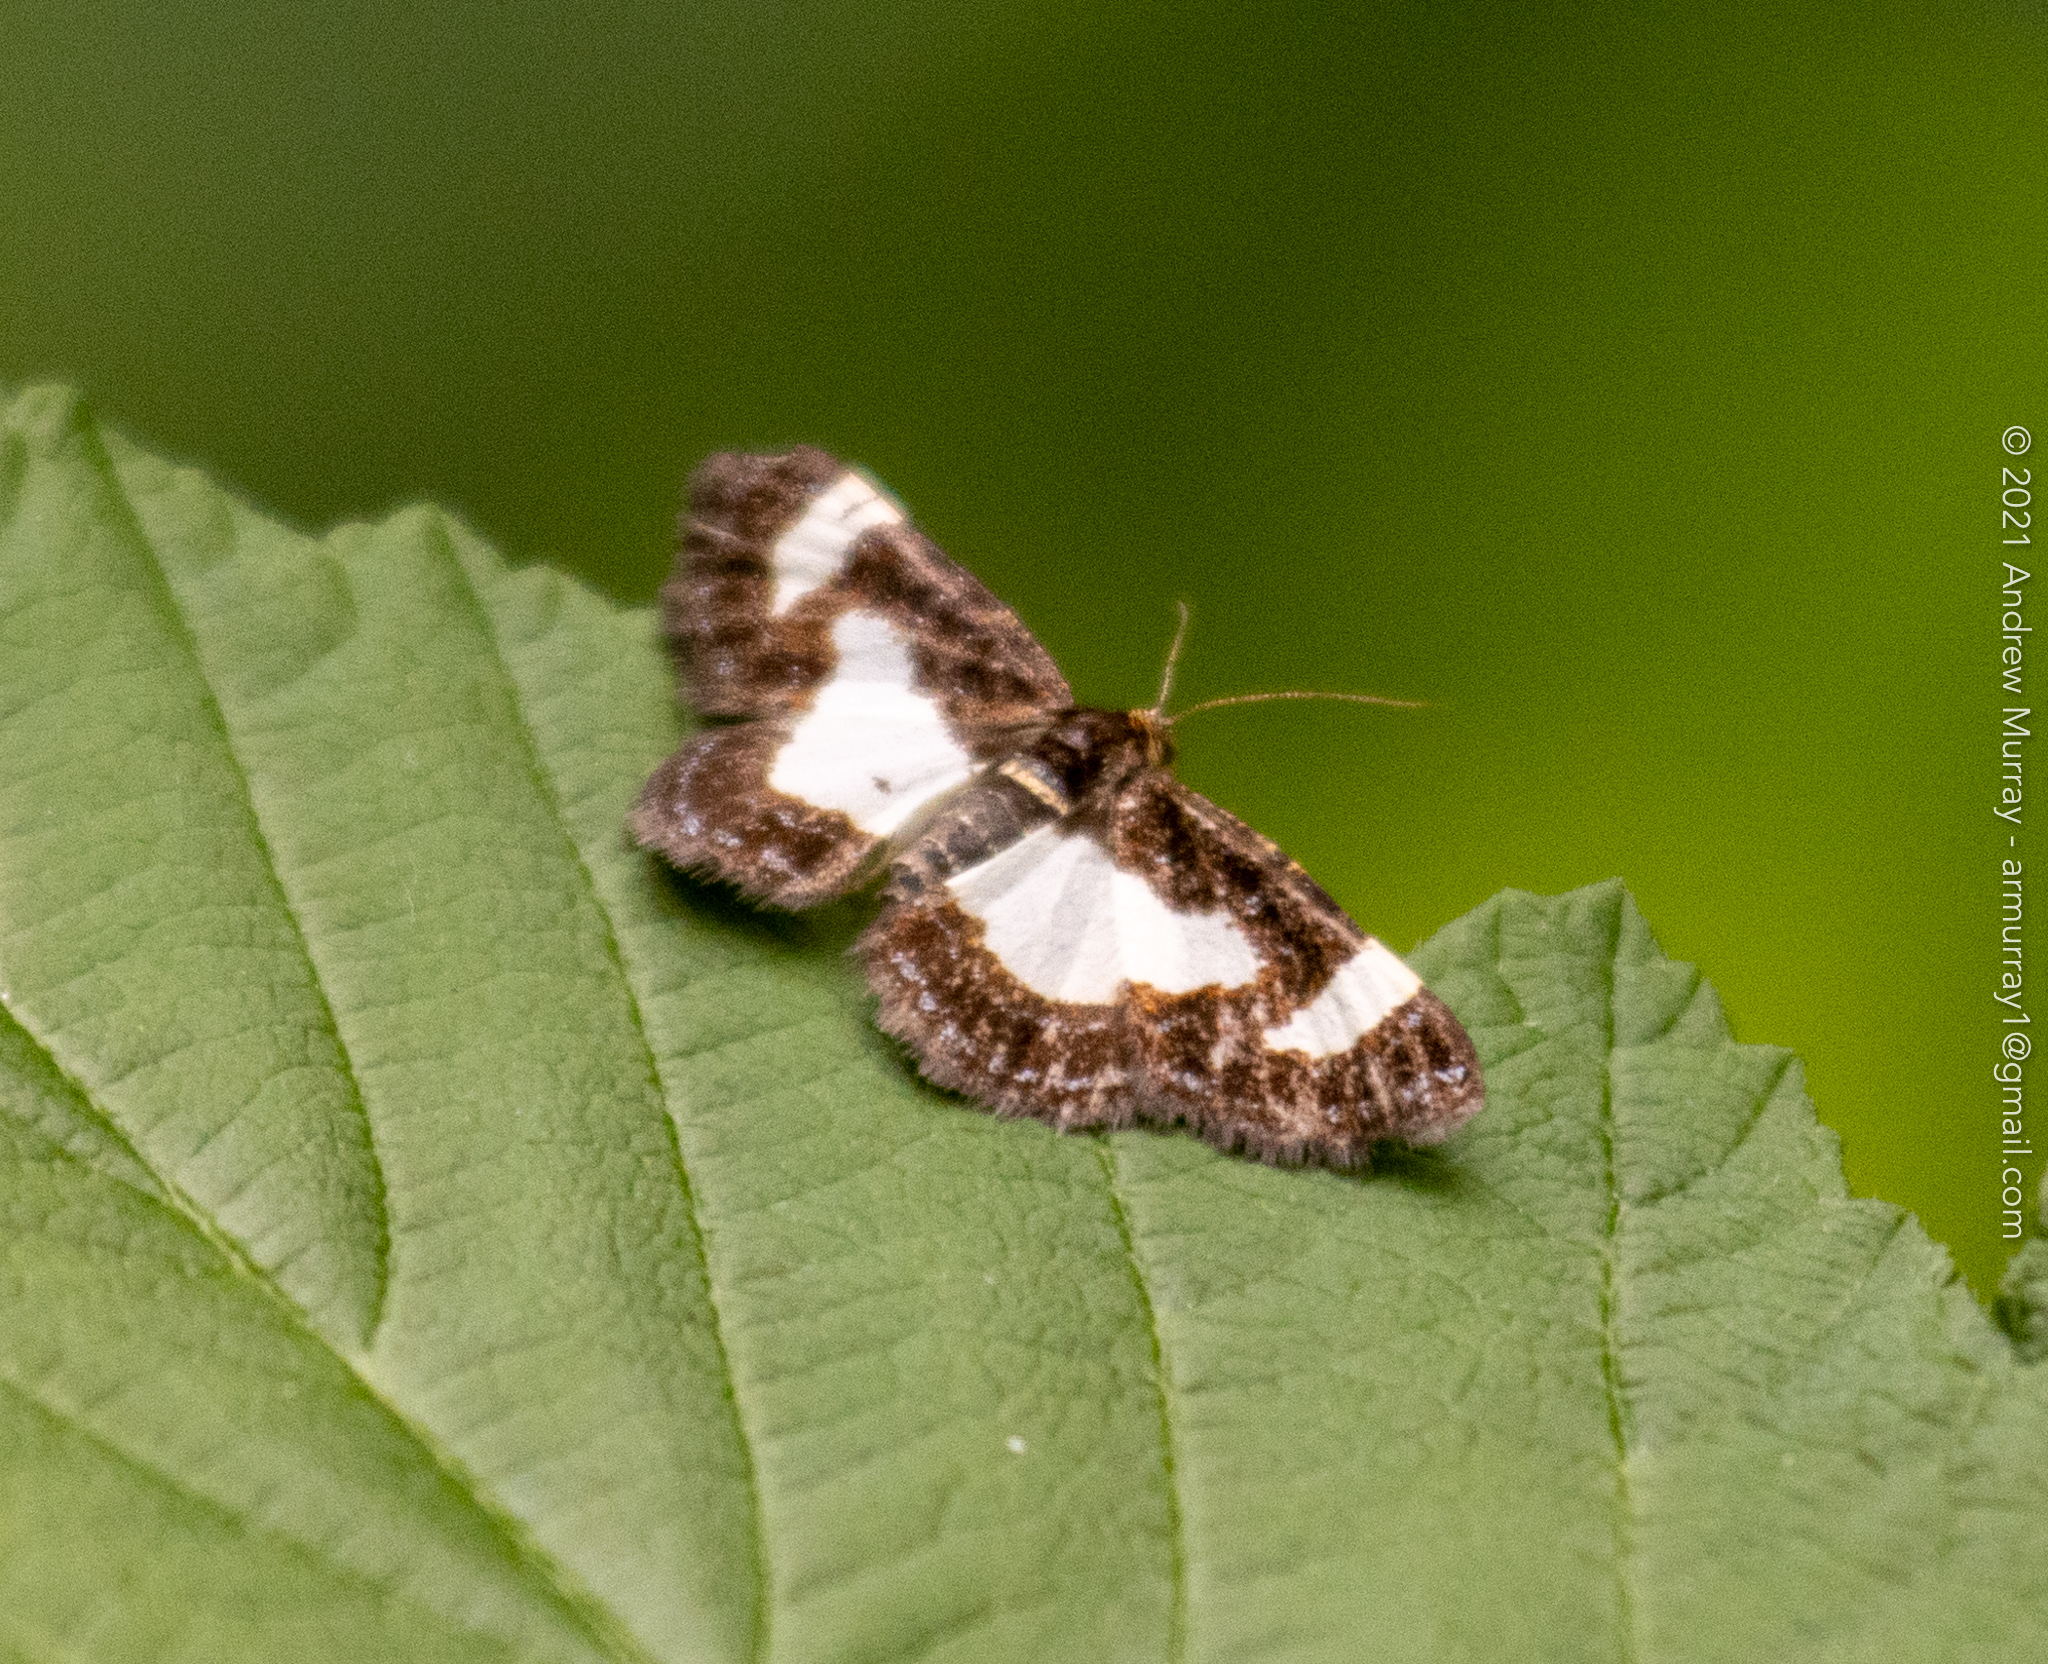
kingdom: Animalia
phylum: Arthropoda
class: Insecta
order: Lepidoptera
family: Geometridae
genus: Heliomata
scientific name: Heliomata cycladata
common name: Common spring moth
